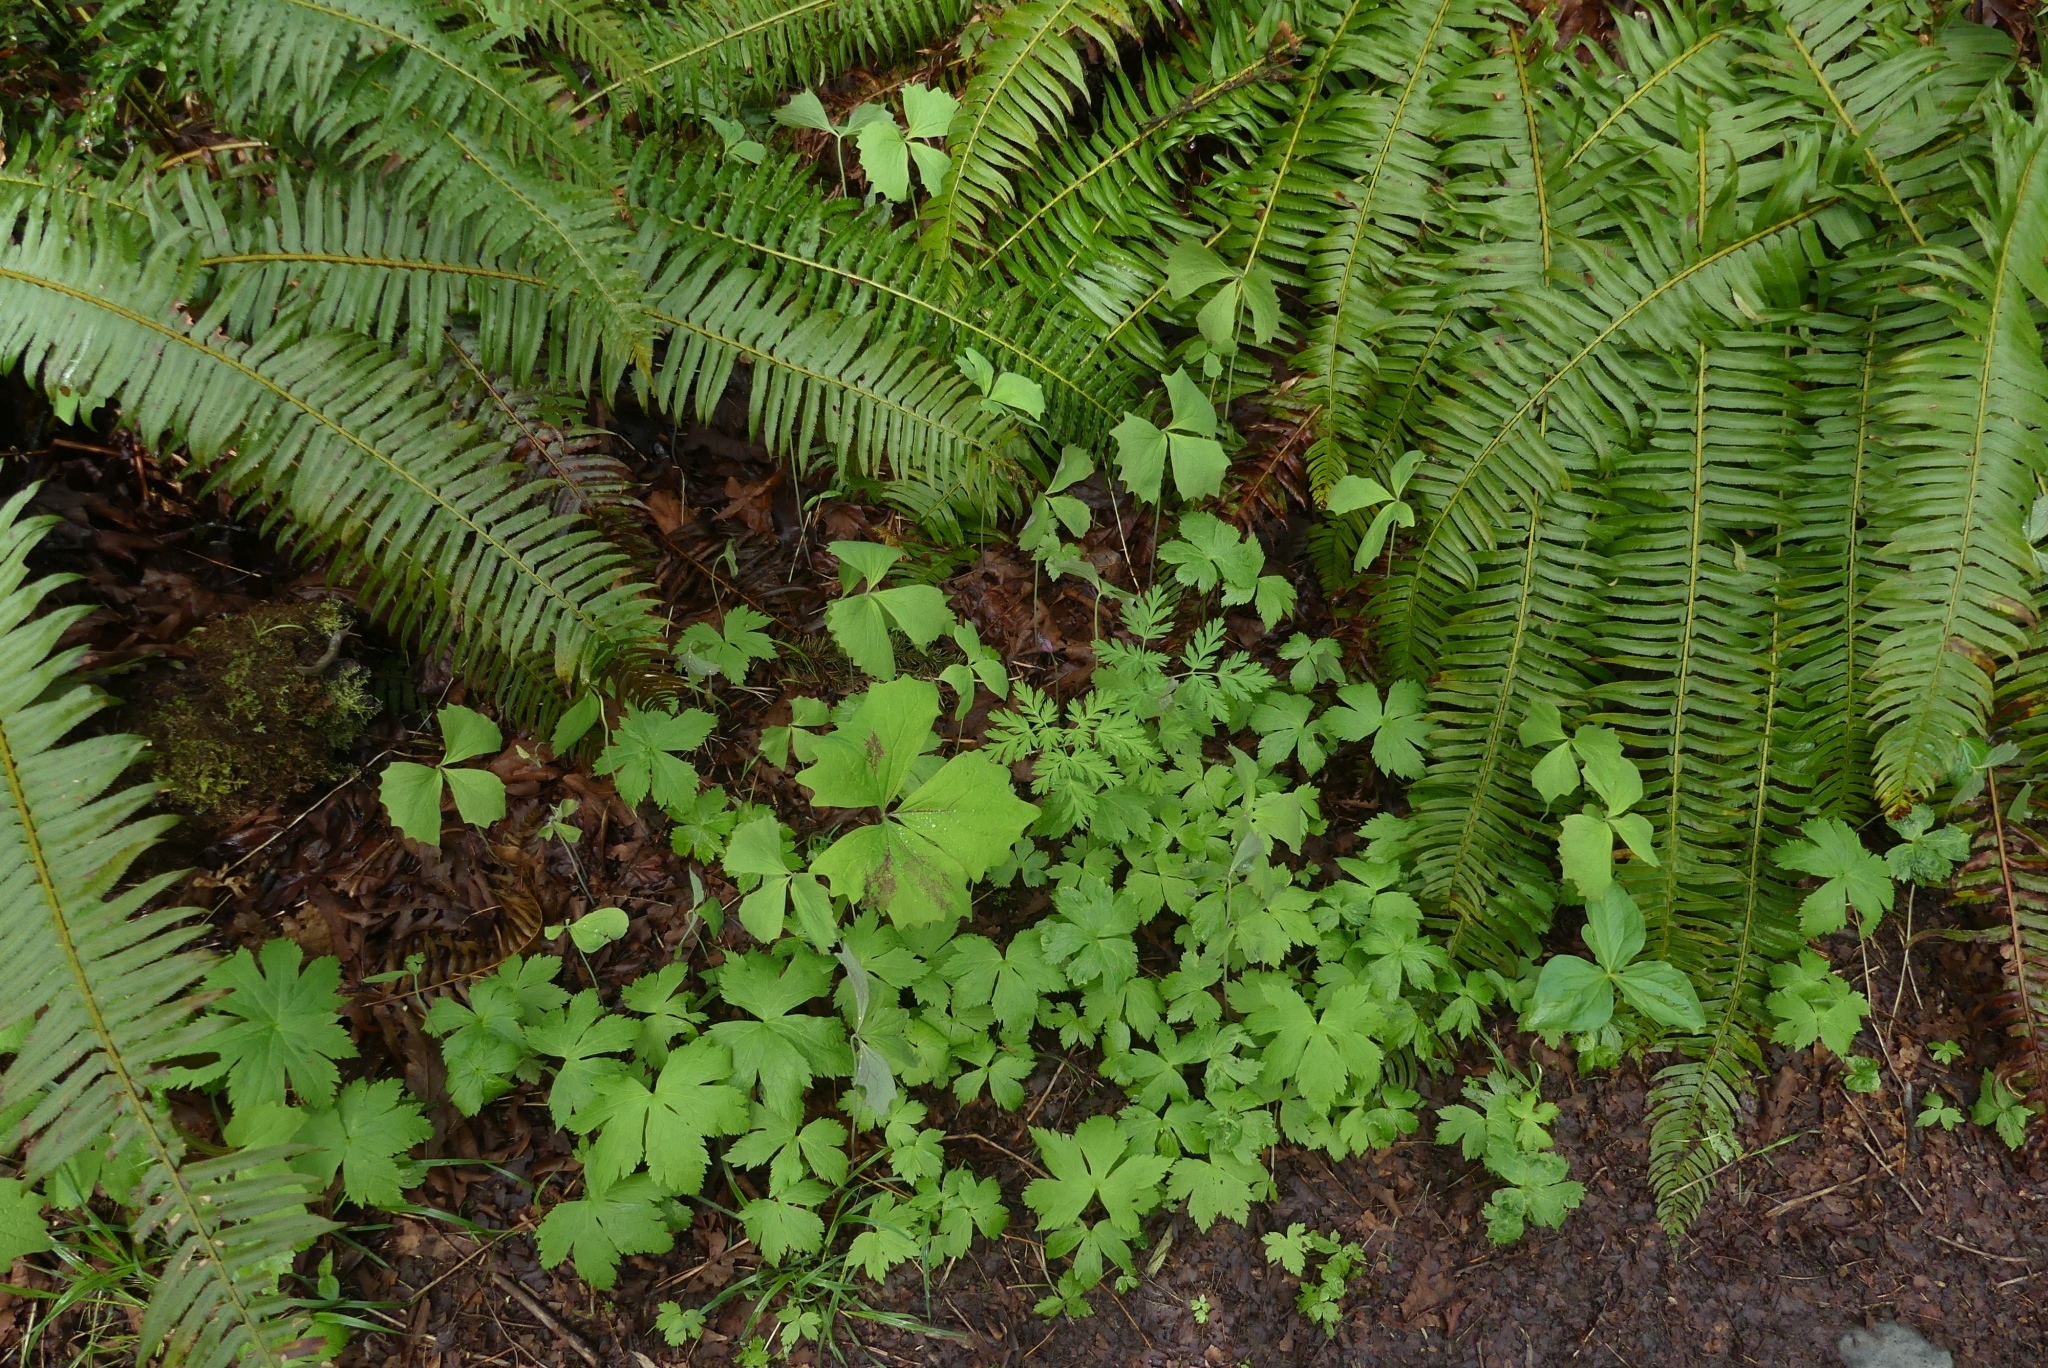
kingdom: Plantae
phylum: Tracheophyta
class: Magnoliopsida
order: Ranunculales
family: Papaveraceae
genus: Dicentra
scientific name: Dicentra formosa
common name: Bleeding-heart
